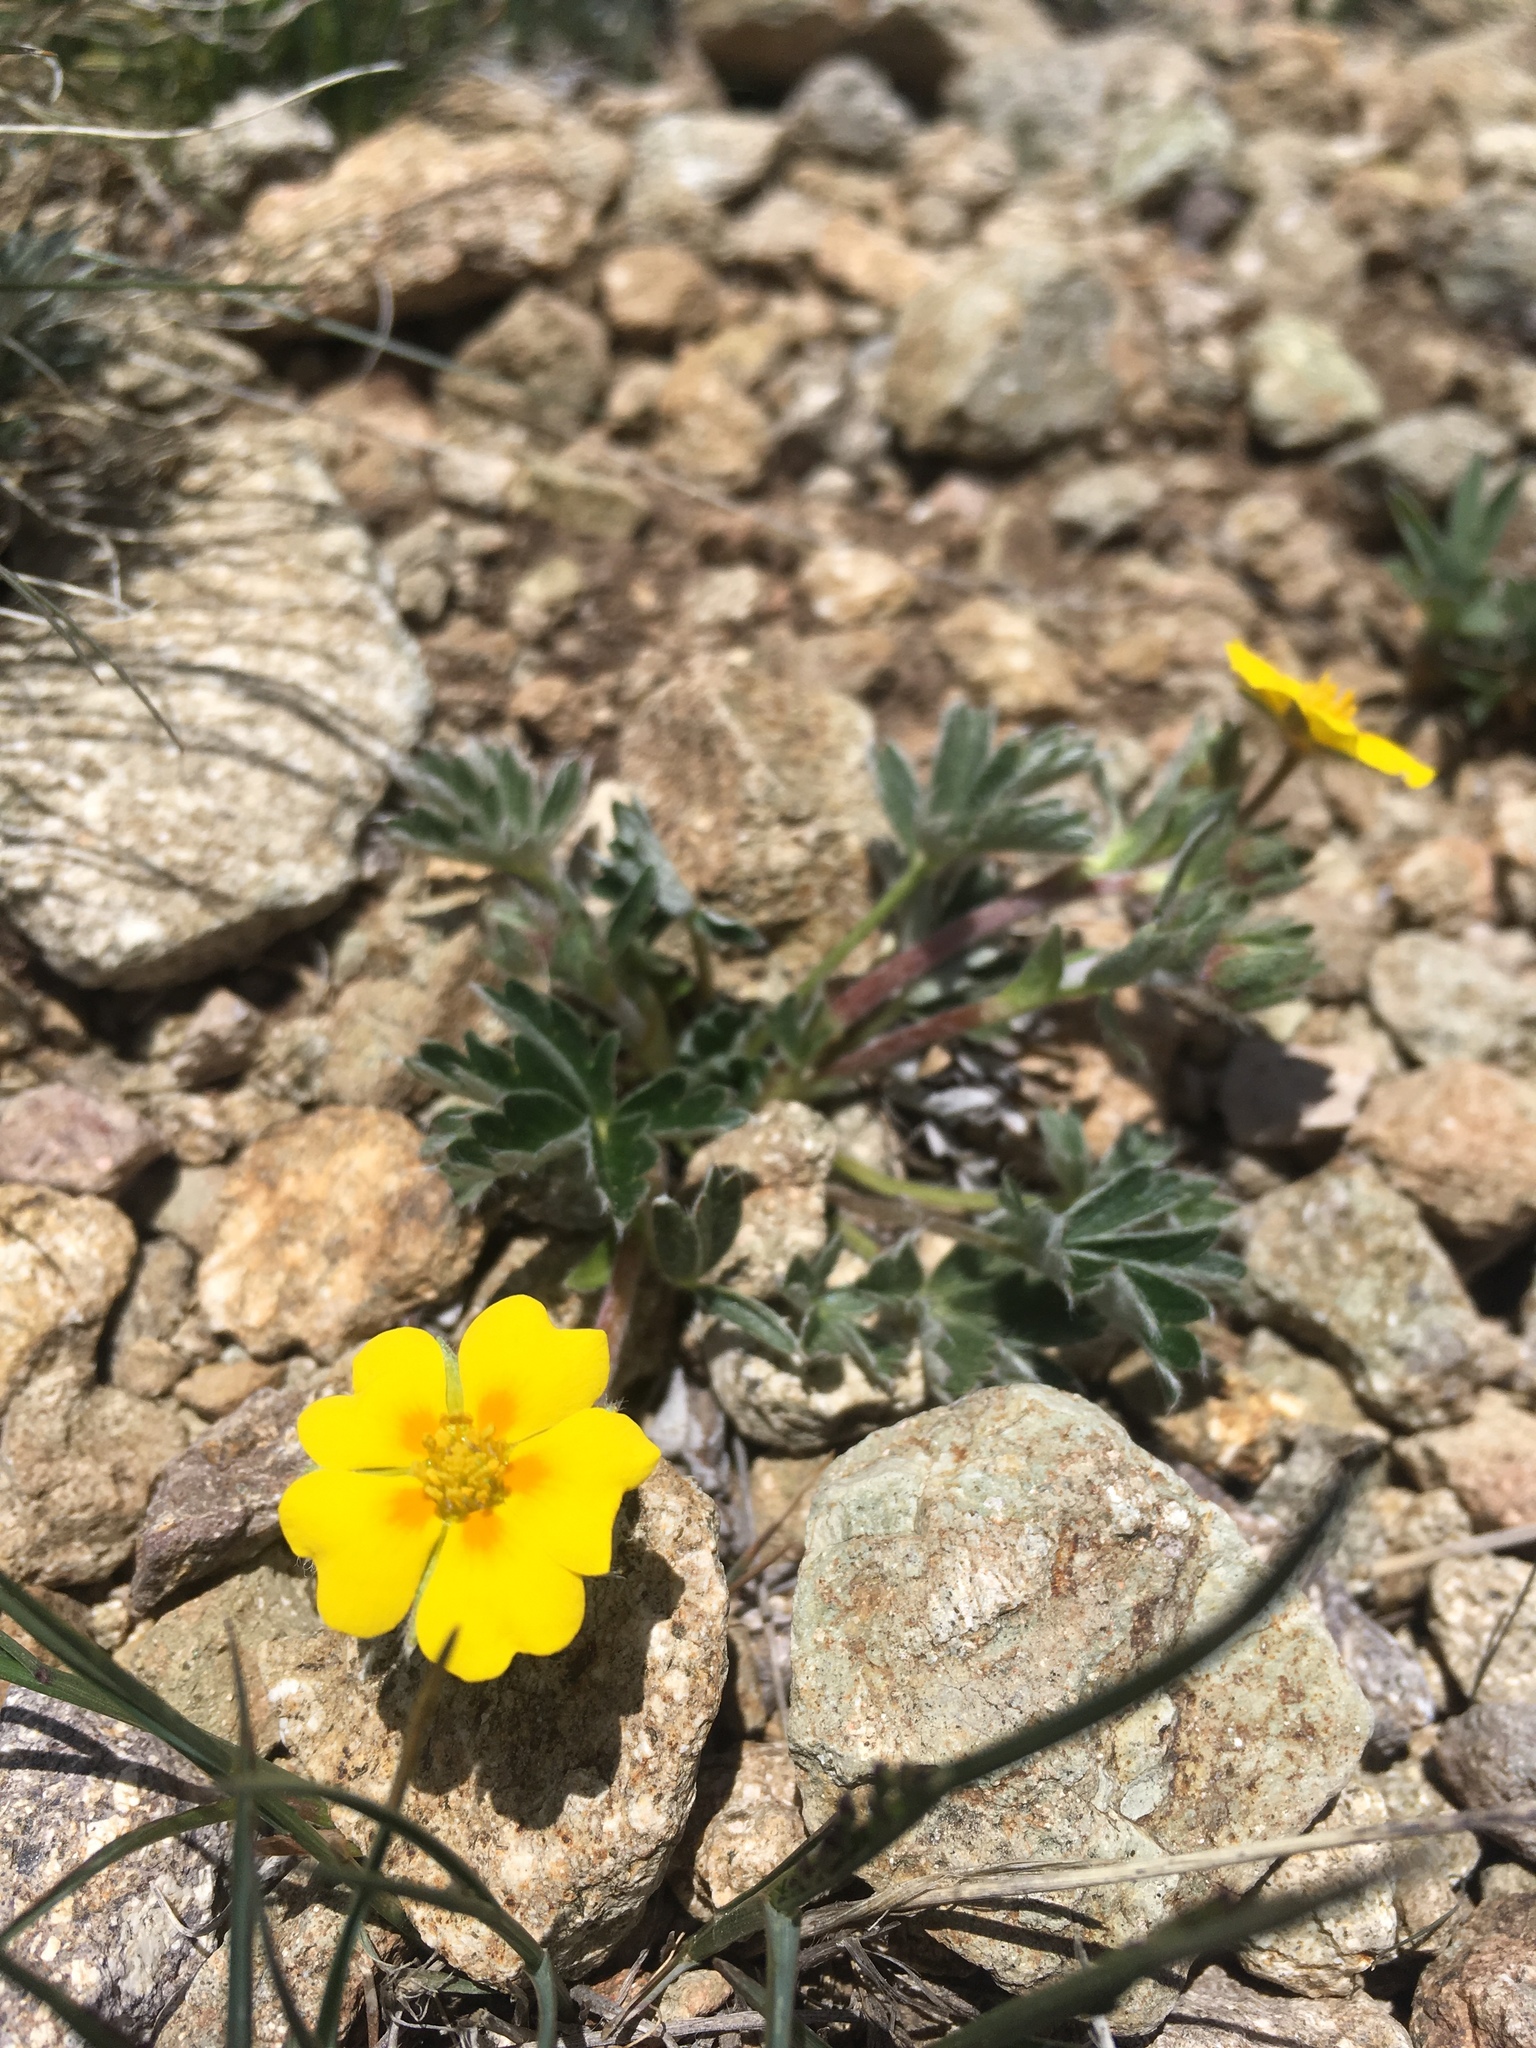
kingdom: Plantae
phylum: Tracheophyta
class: Magnoliopsida
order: Rosales
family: Rosaceae
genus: Potentilla
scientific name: Potentilla concinna
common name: Early cinquefoil
